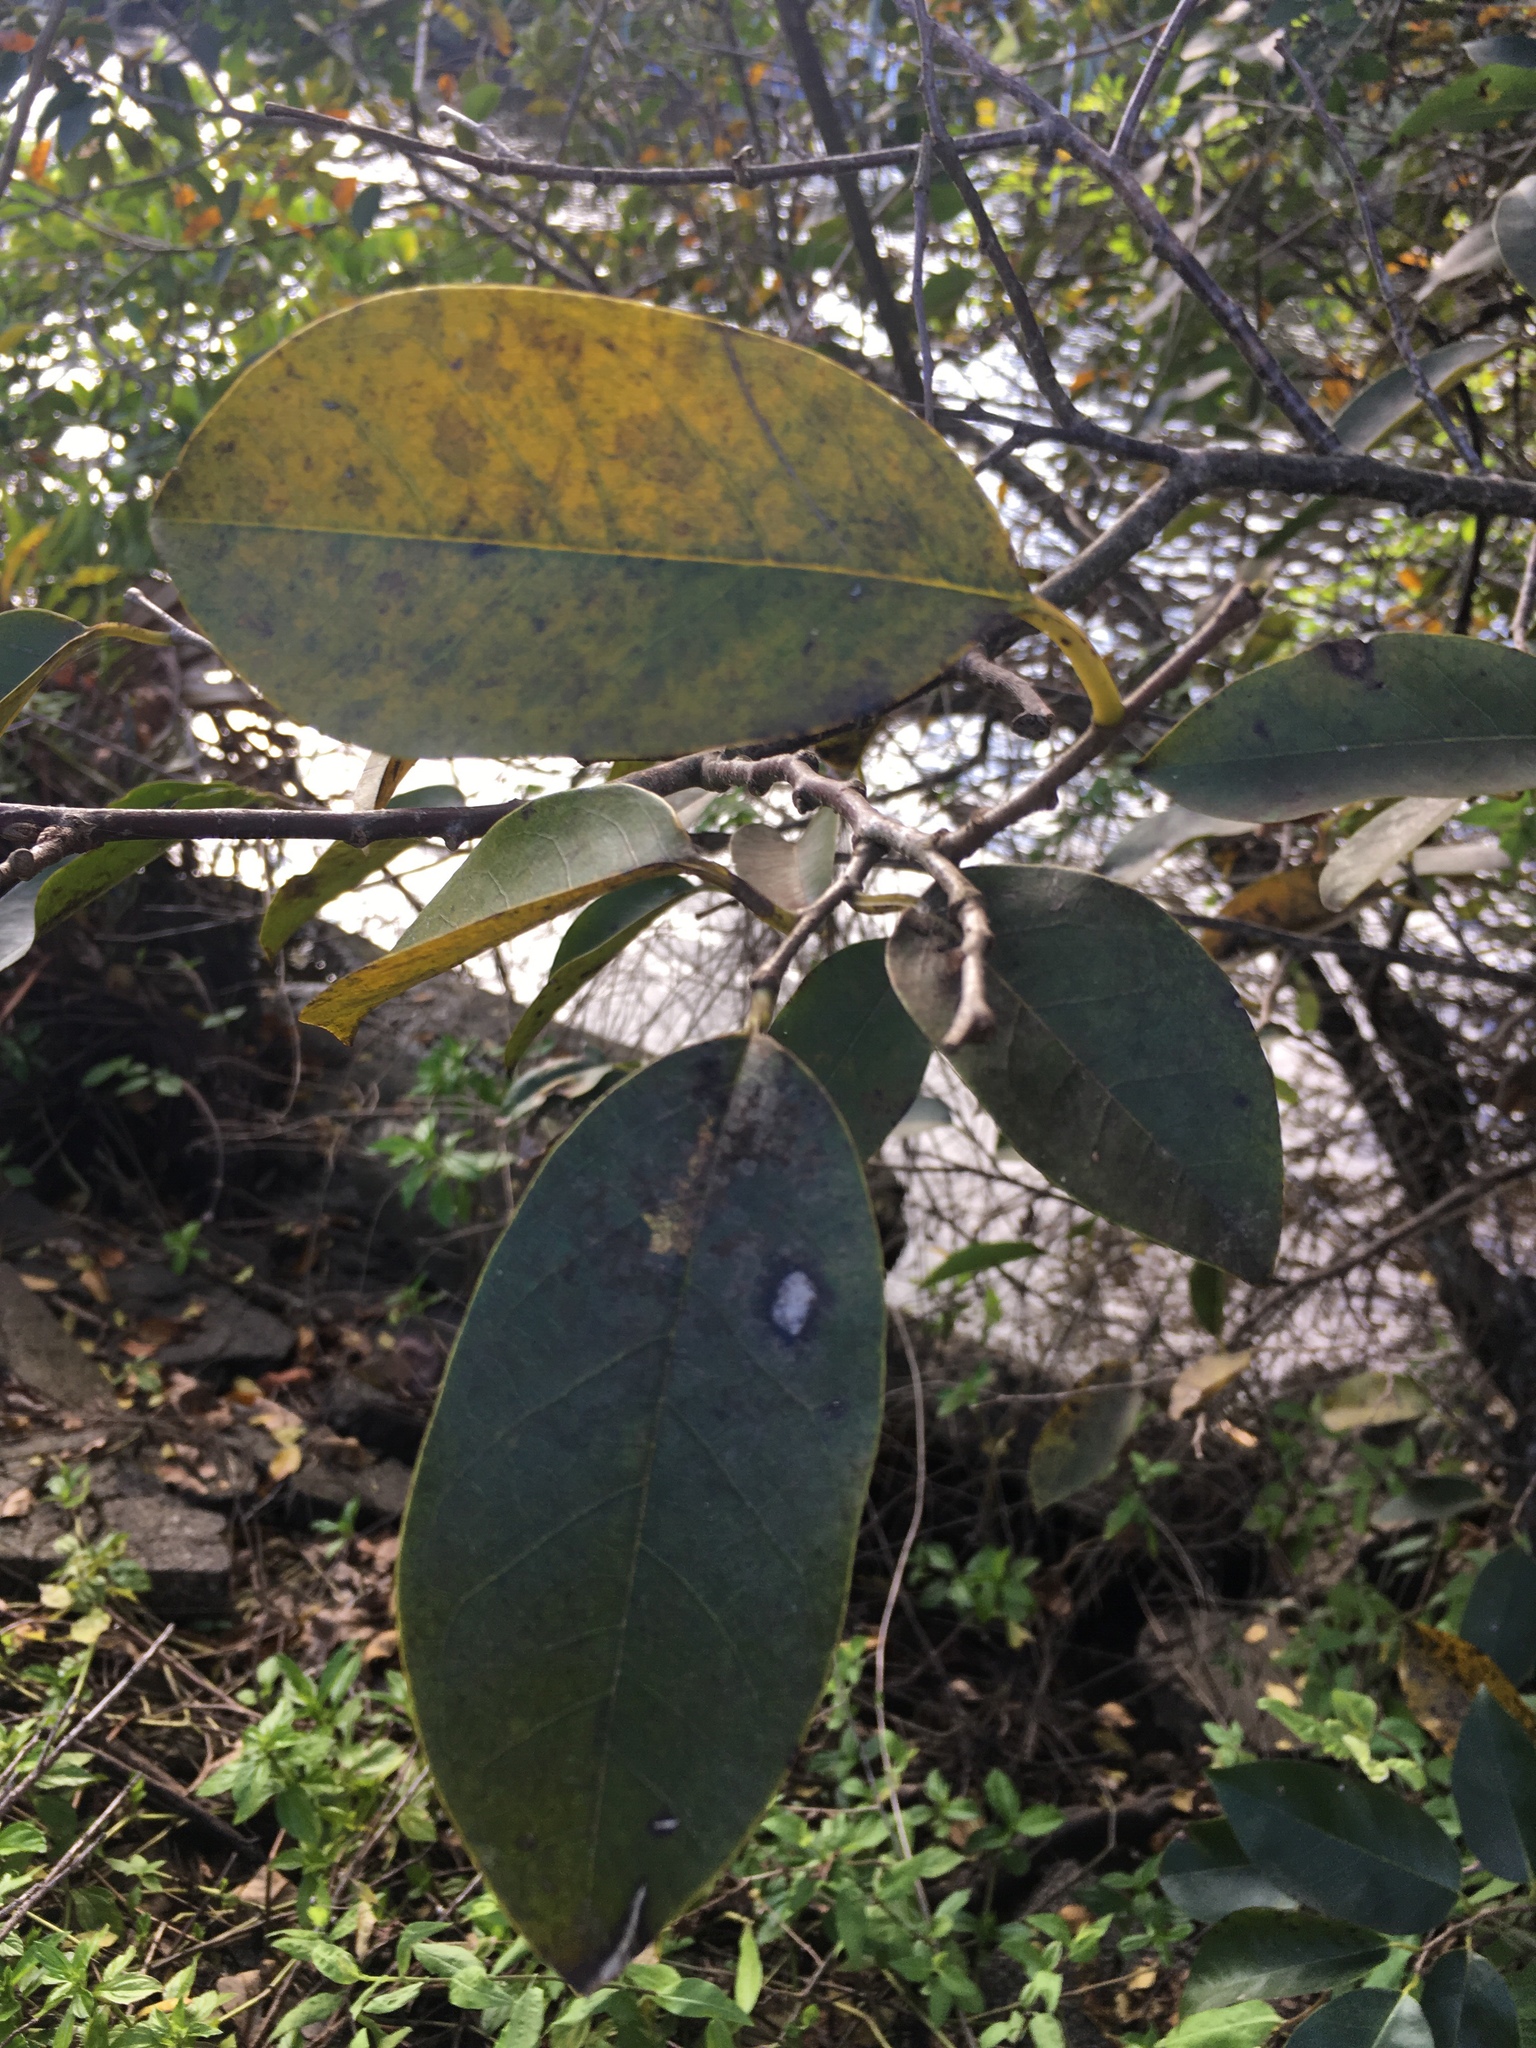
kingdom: Plantae
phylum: Tracheophyta
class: Magnoliopsida
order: Magnoliales
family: Annonaceae
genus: Annona
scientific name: Annona glabra
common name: Monkey apple
